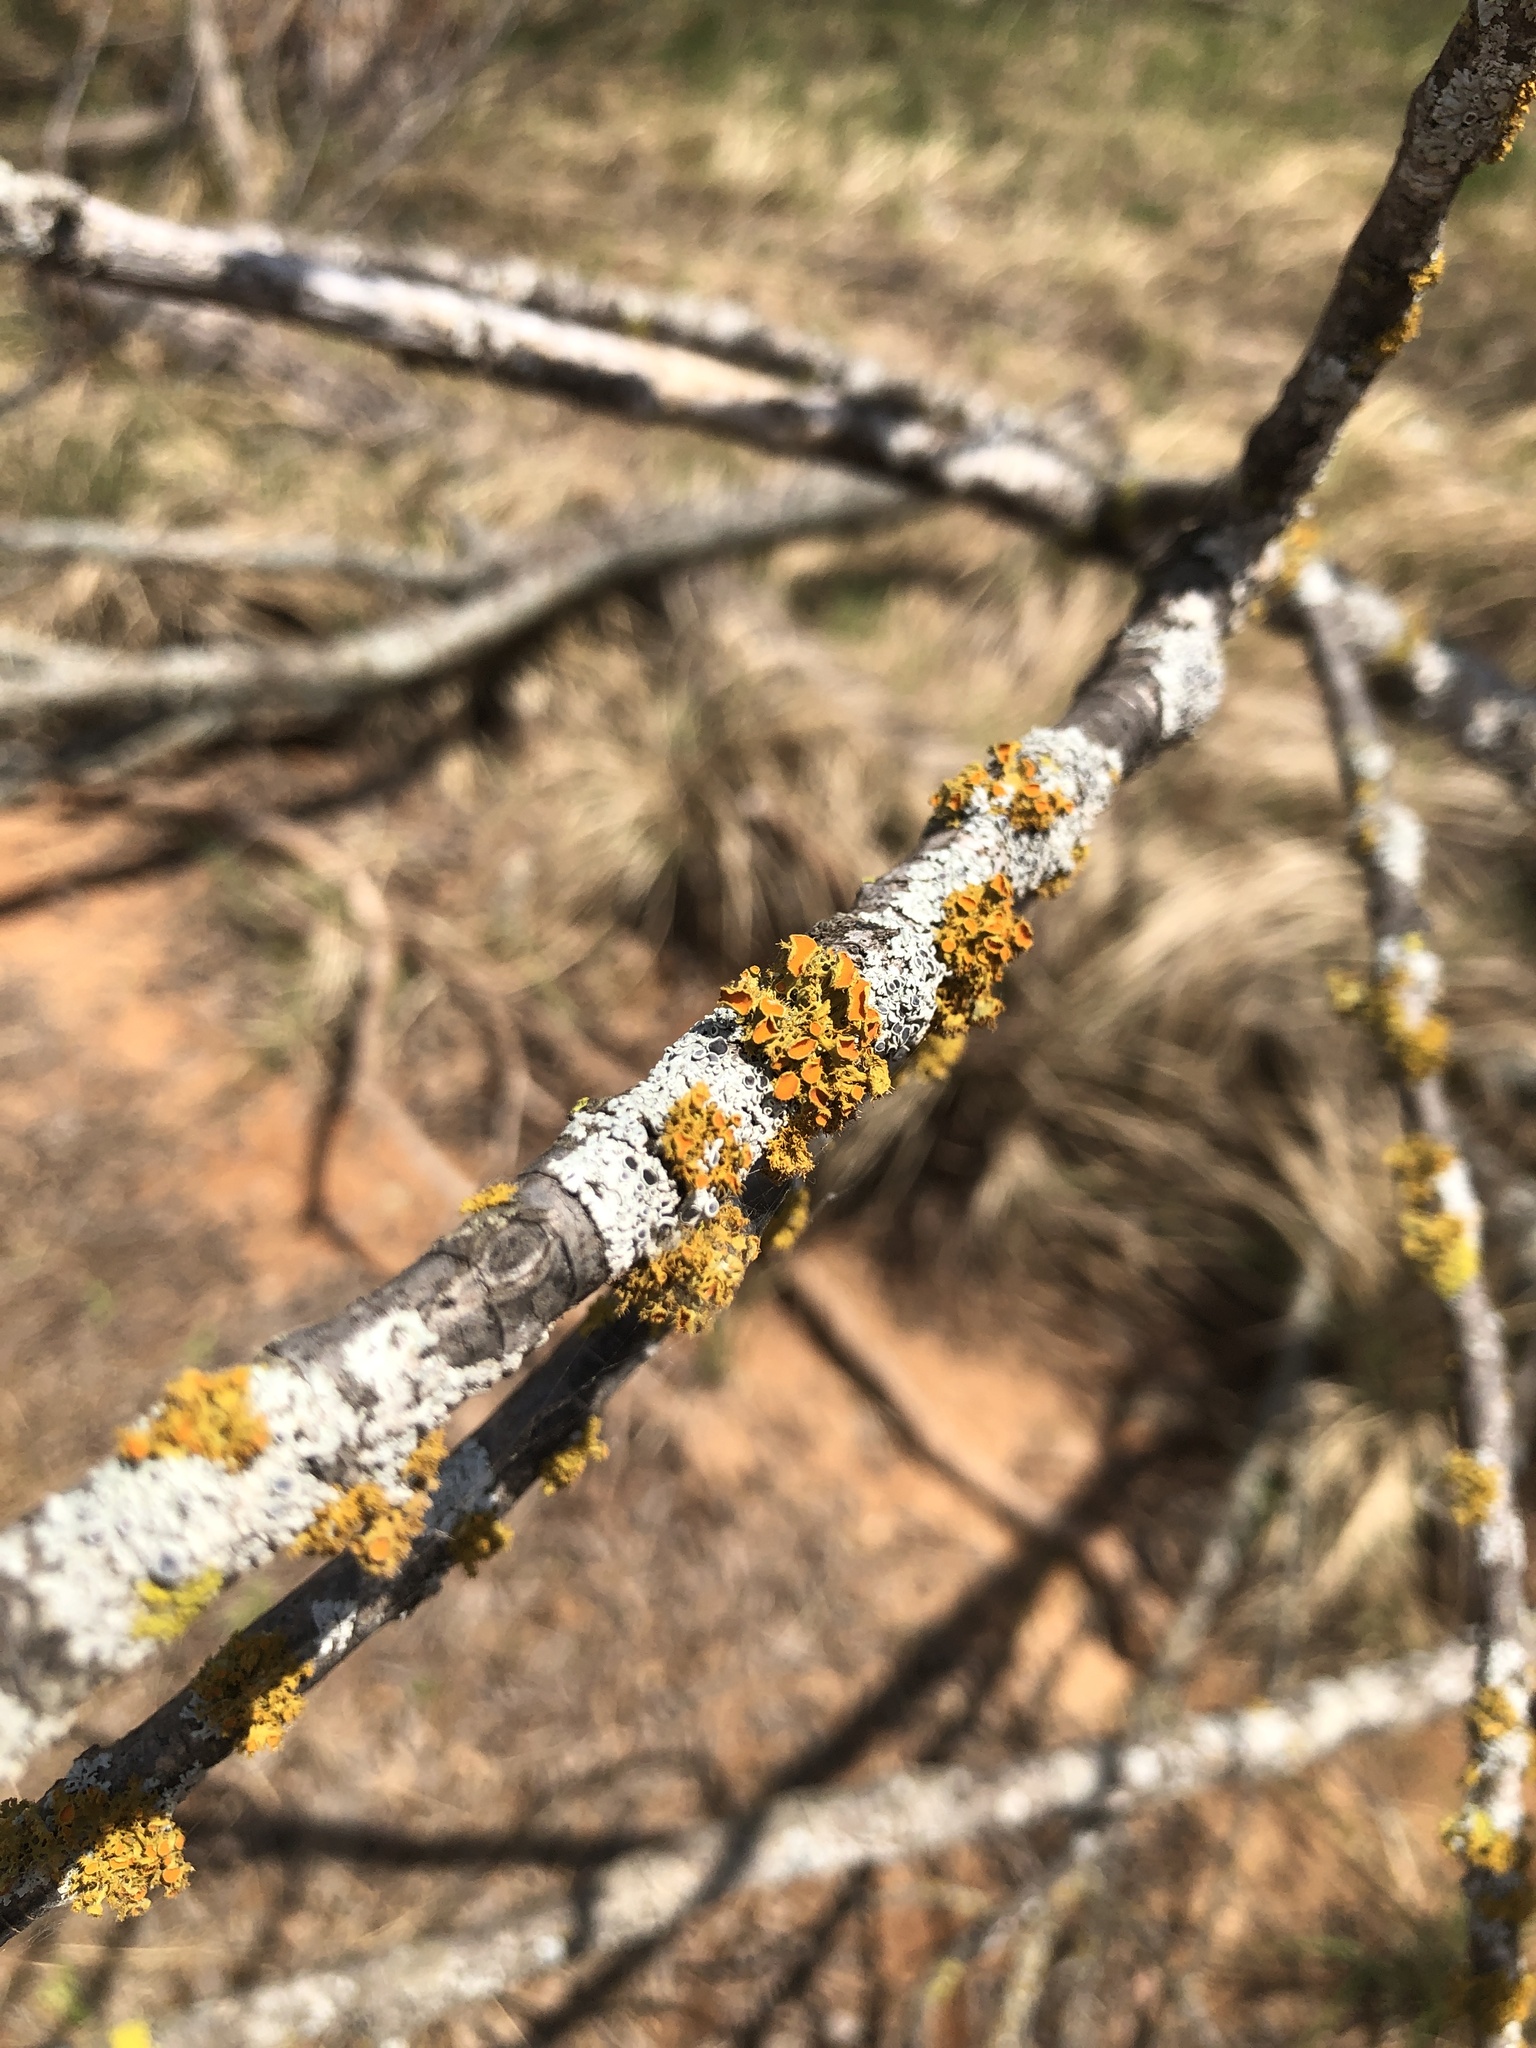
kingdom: Fungi
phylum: Ascomycota
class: Lecanoromycetes
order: Teloschistales
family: Teloschistaceae
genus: Niorma
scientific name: Niorma chrysophthalma
